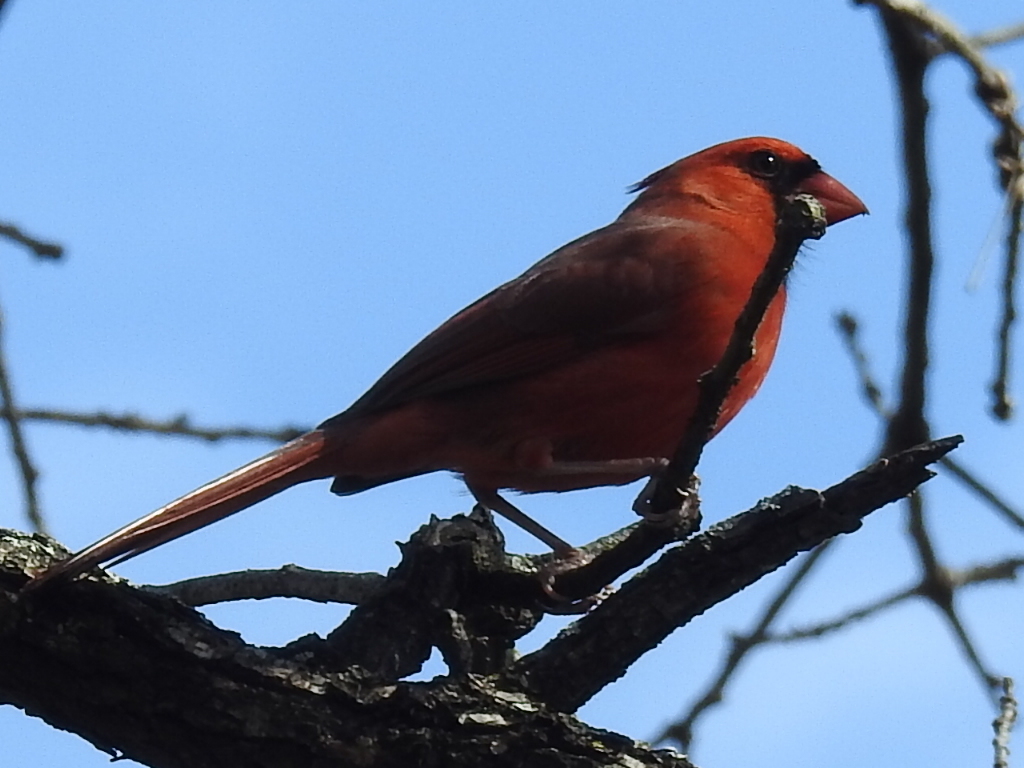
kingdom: Animalia
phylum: Chordata
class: Aves
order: Passeriformes
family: Cardinalidae
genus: Cardinalis
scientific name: Cardinalis cardinalis
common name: Northern cardinal
